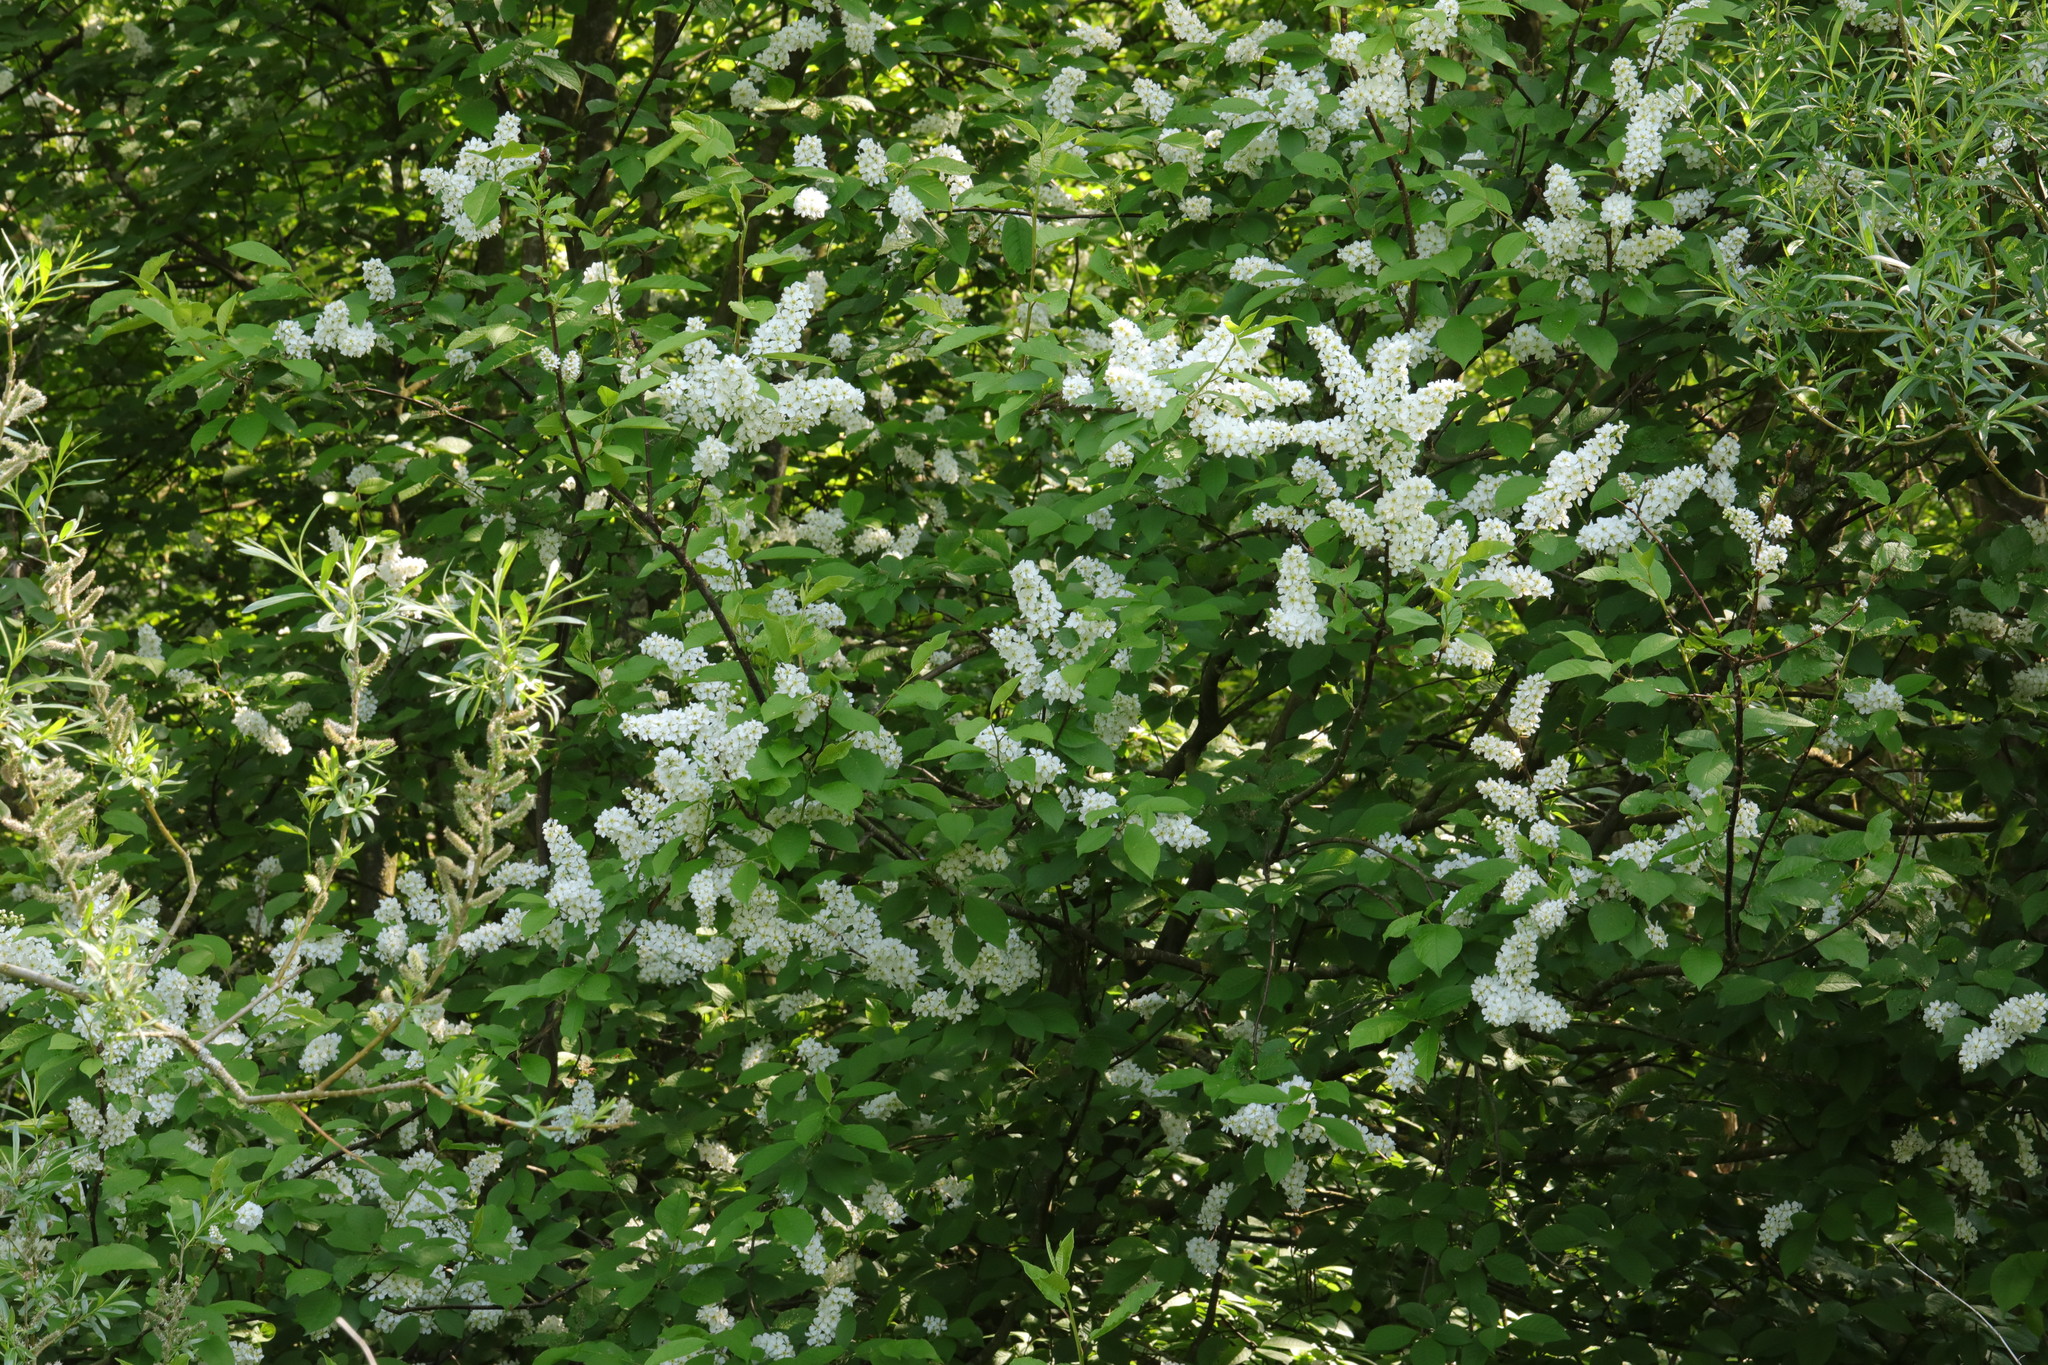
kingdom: Plantae
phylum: Tracheophyta
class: Magnoliopsida
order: Rosales
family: Rosaceae
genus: Prunus
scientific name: Prunus padus
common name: Bird cherry
